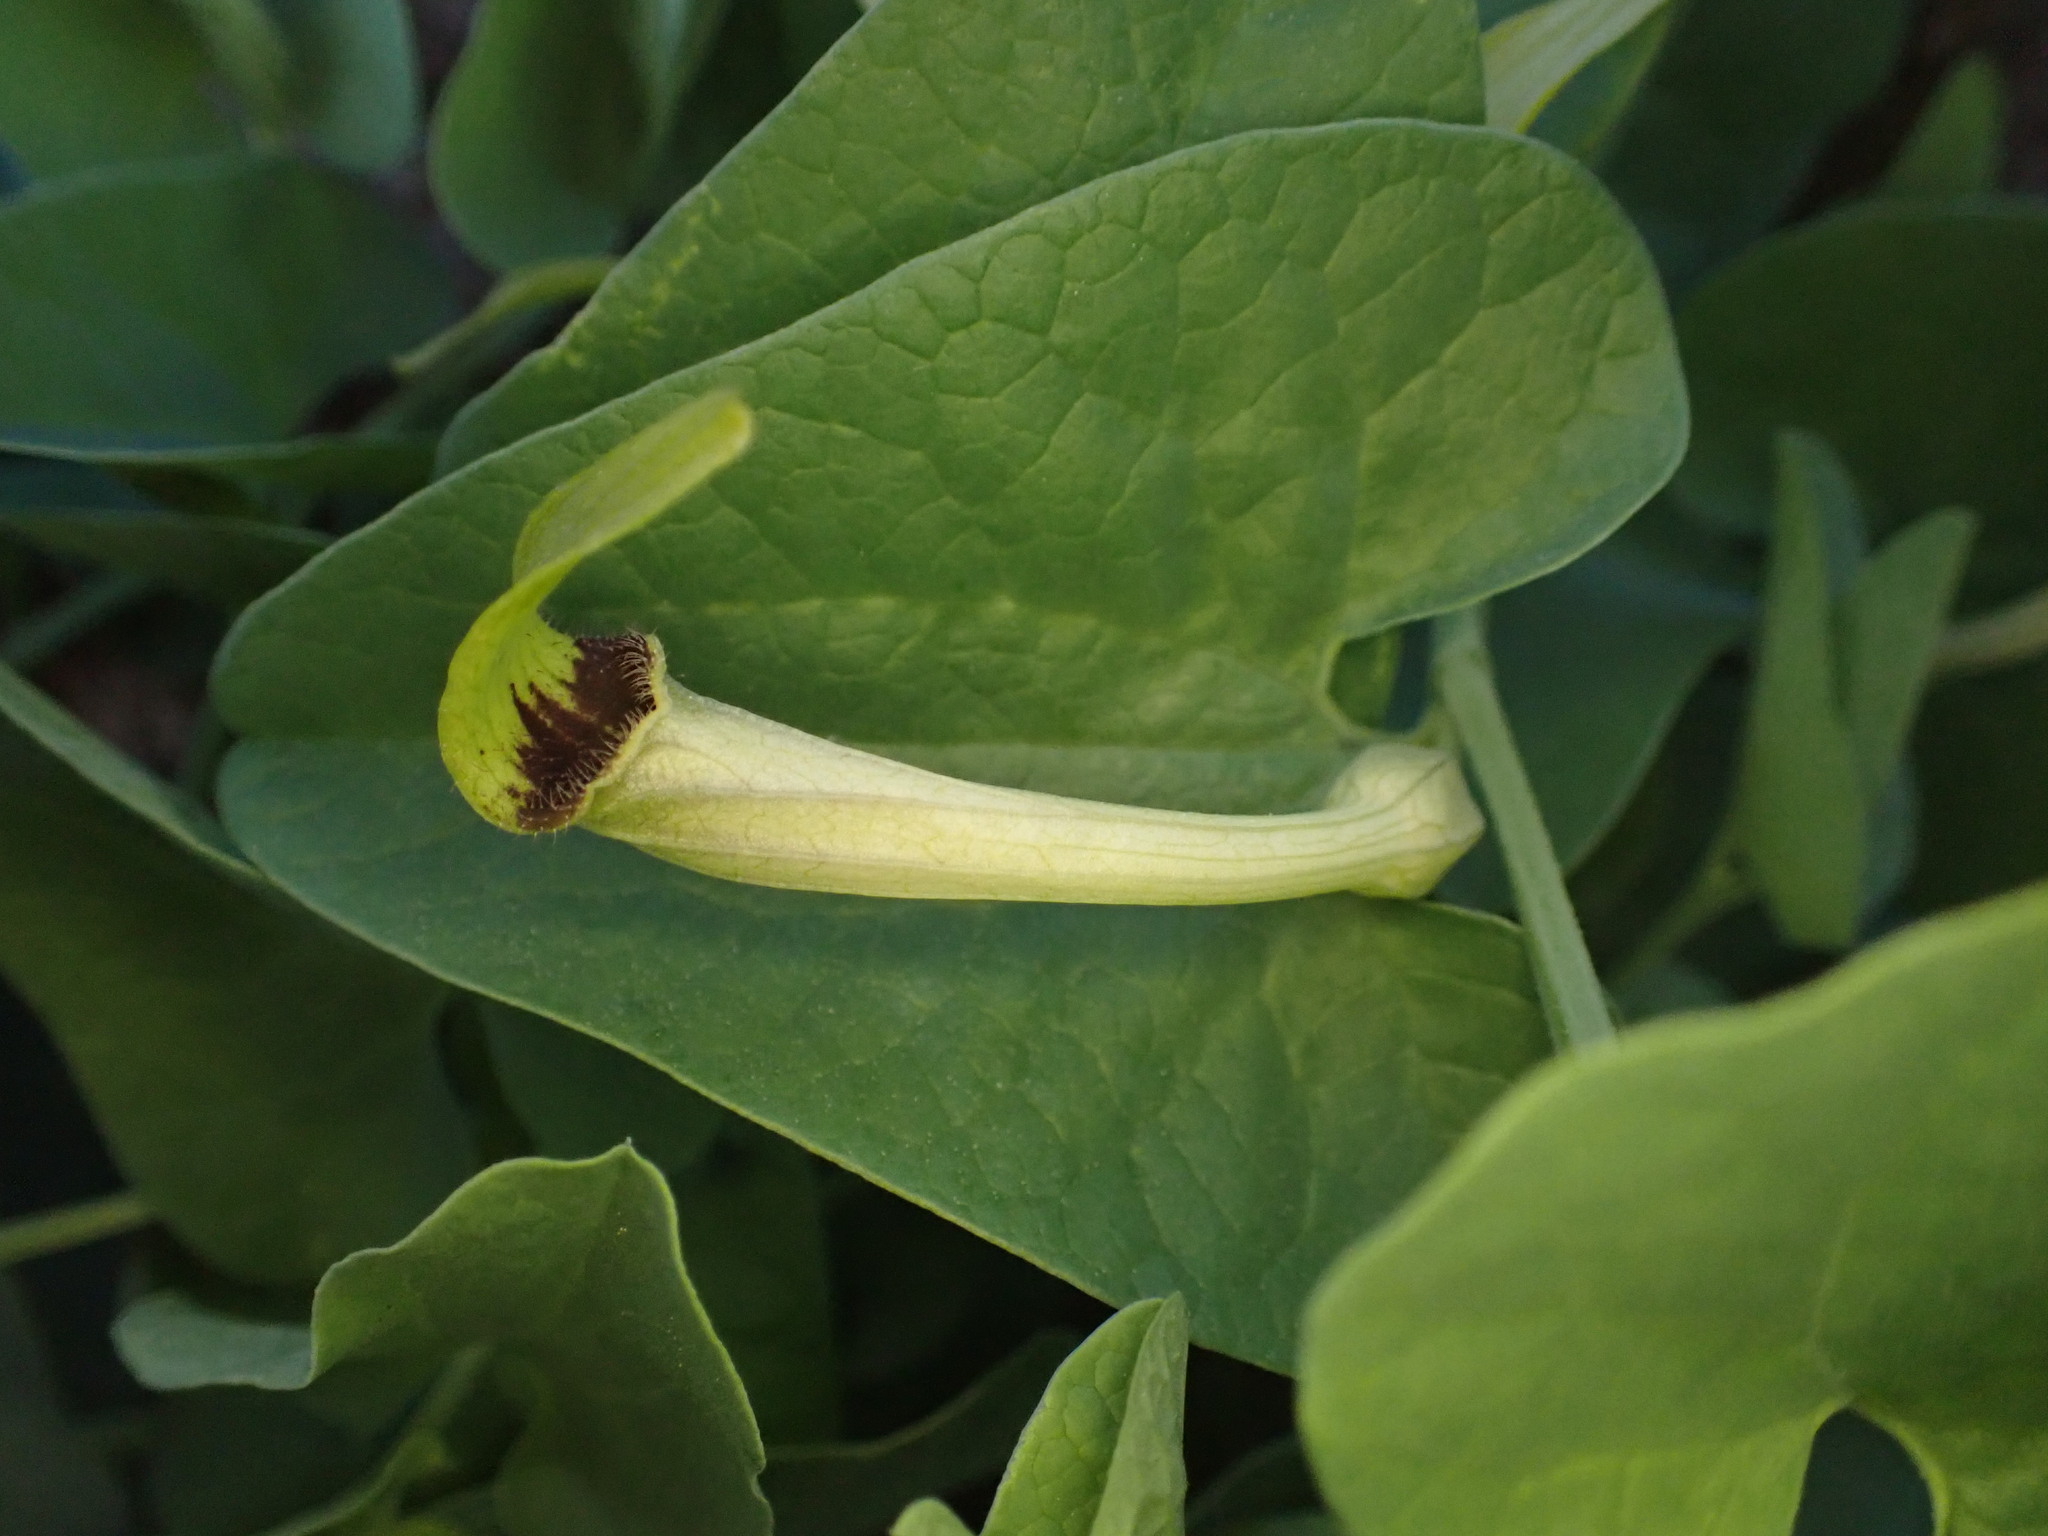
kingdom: Plantae
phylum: Tracheophyta
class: Magnoliopsida
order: Piperales
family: Aristolochiaceae
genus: Aristolochia
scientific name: Aristolochia paucinervis
